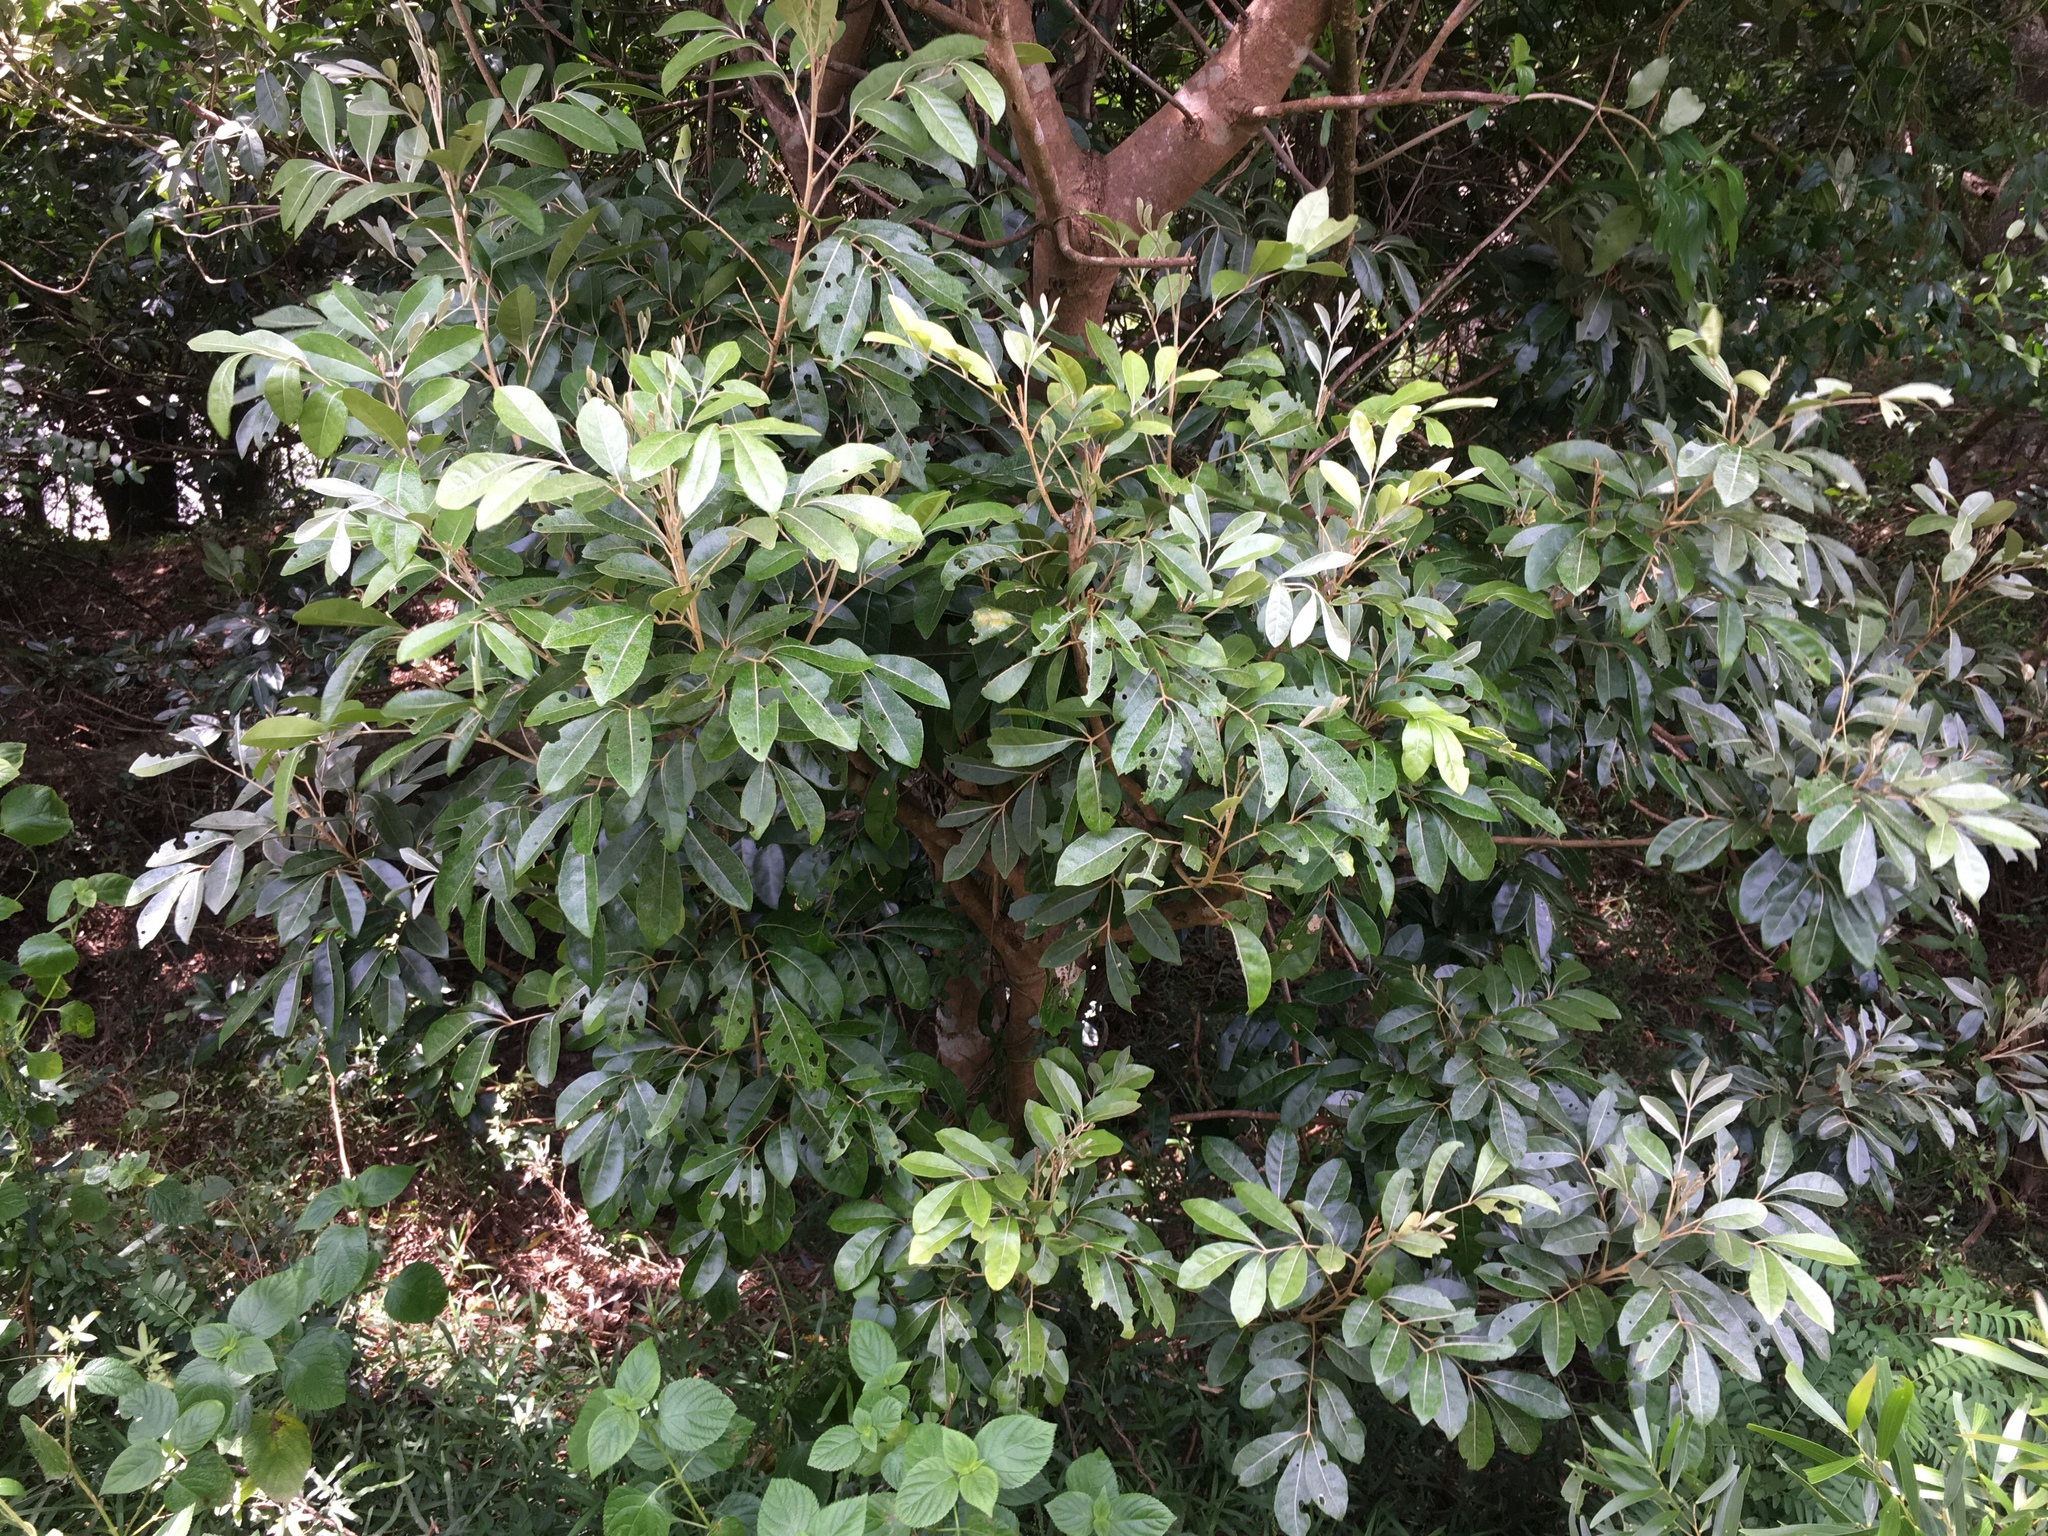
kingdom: Plantae
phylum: Tracheophyta
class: Magnoliopsida
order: Sapindales
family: Meliaceae
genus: Aglaia
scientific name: Aglaia elaeagnoidea
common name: Droopyleaf
